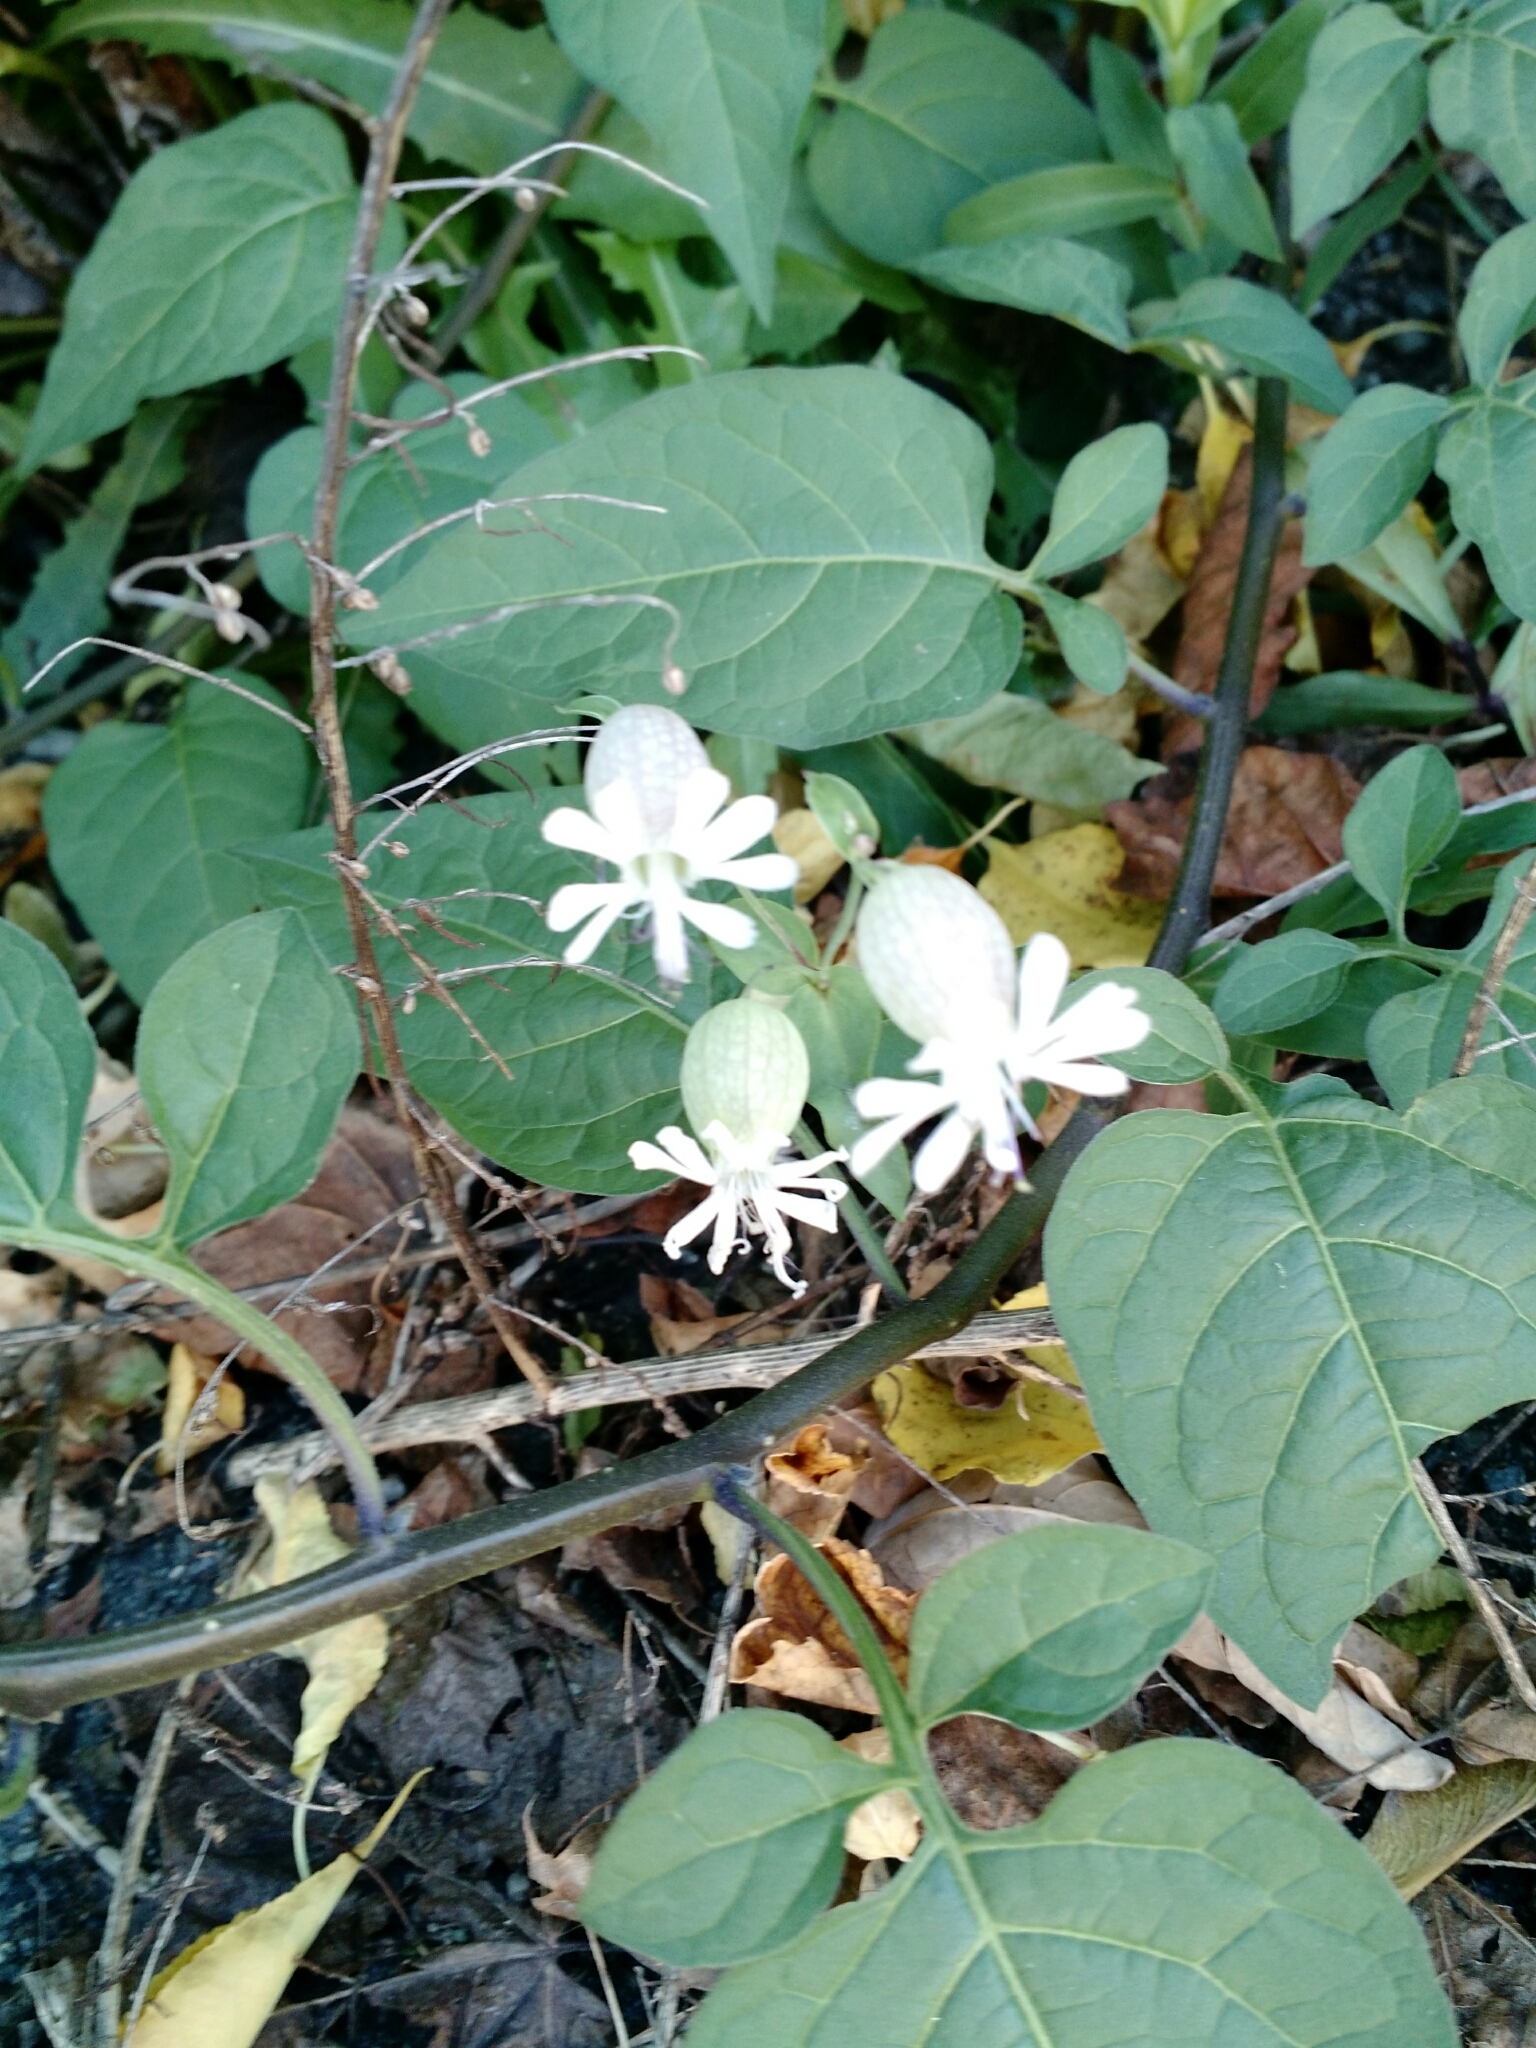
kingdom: Plantae
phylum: Tracheophyta
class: Magnoliopsida
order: Caryophyllales
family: Caryophyllaceae
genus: Silene
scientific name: Silene vulgaris
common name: Bladder campion
